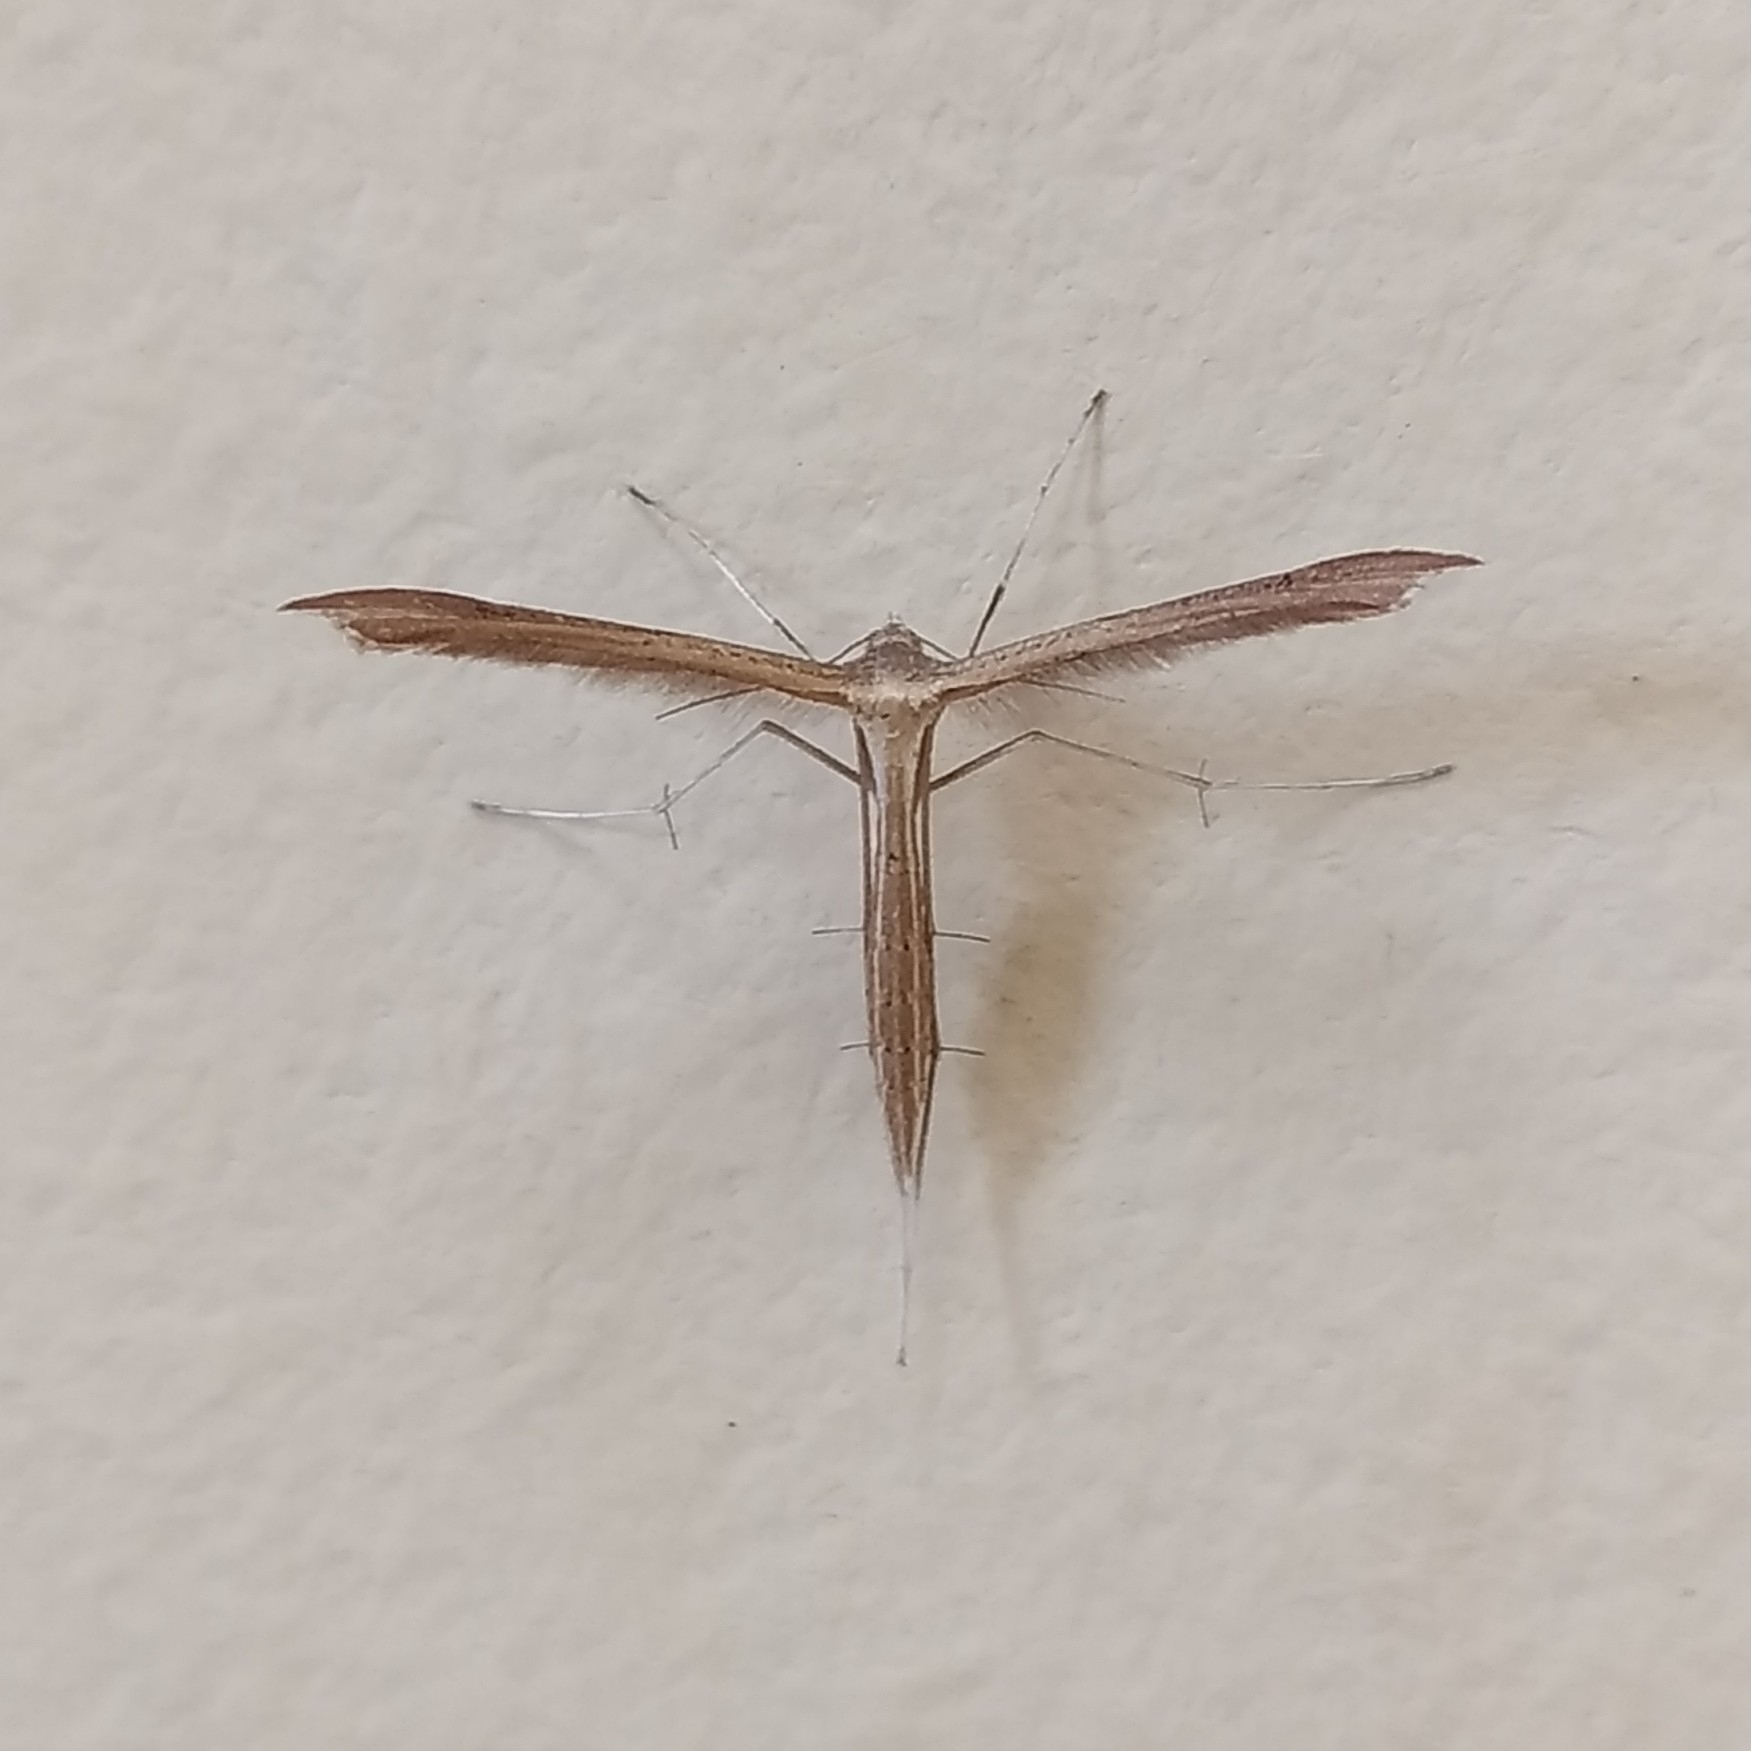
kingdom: Animalia
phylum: Arthropoda
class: Insecta
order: Lepidoptera
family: Pterophoridae
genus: Stenoptilia
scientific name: Stenoptilia pterodactyla
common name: Brown plume
